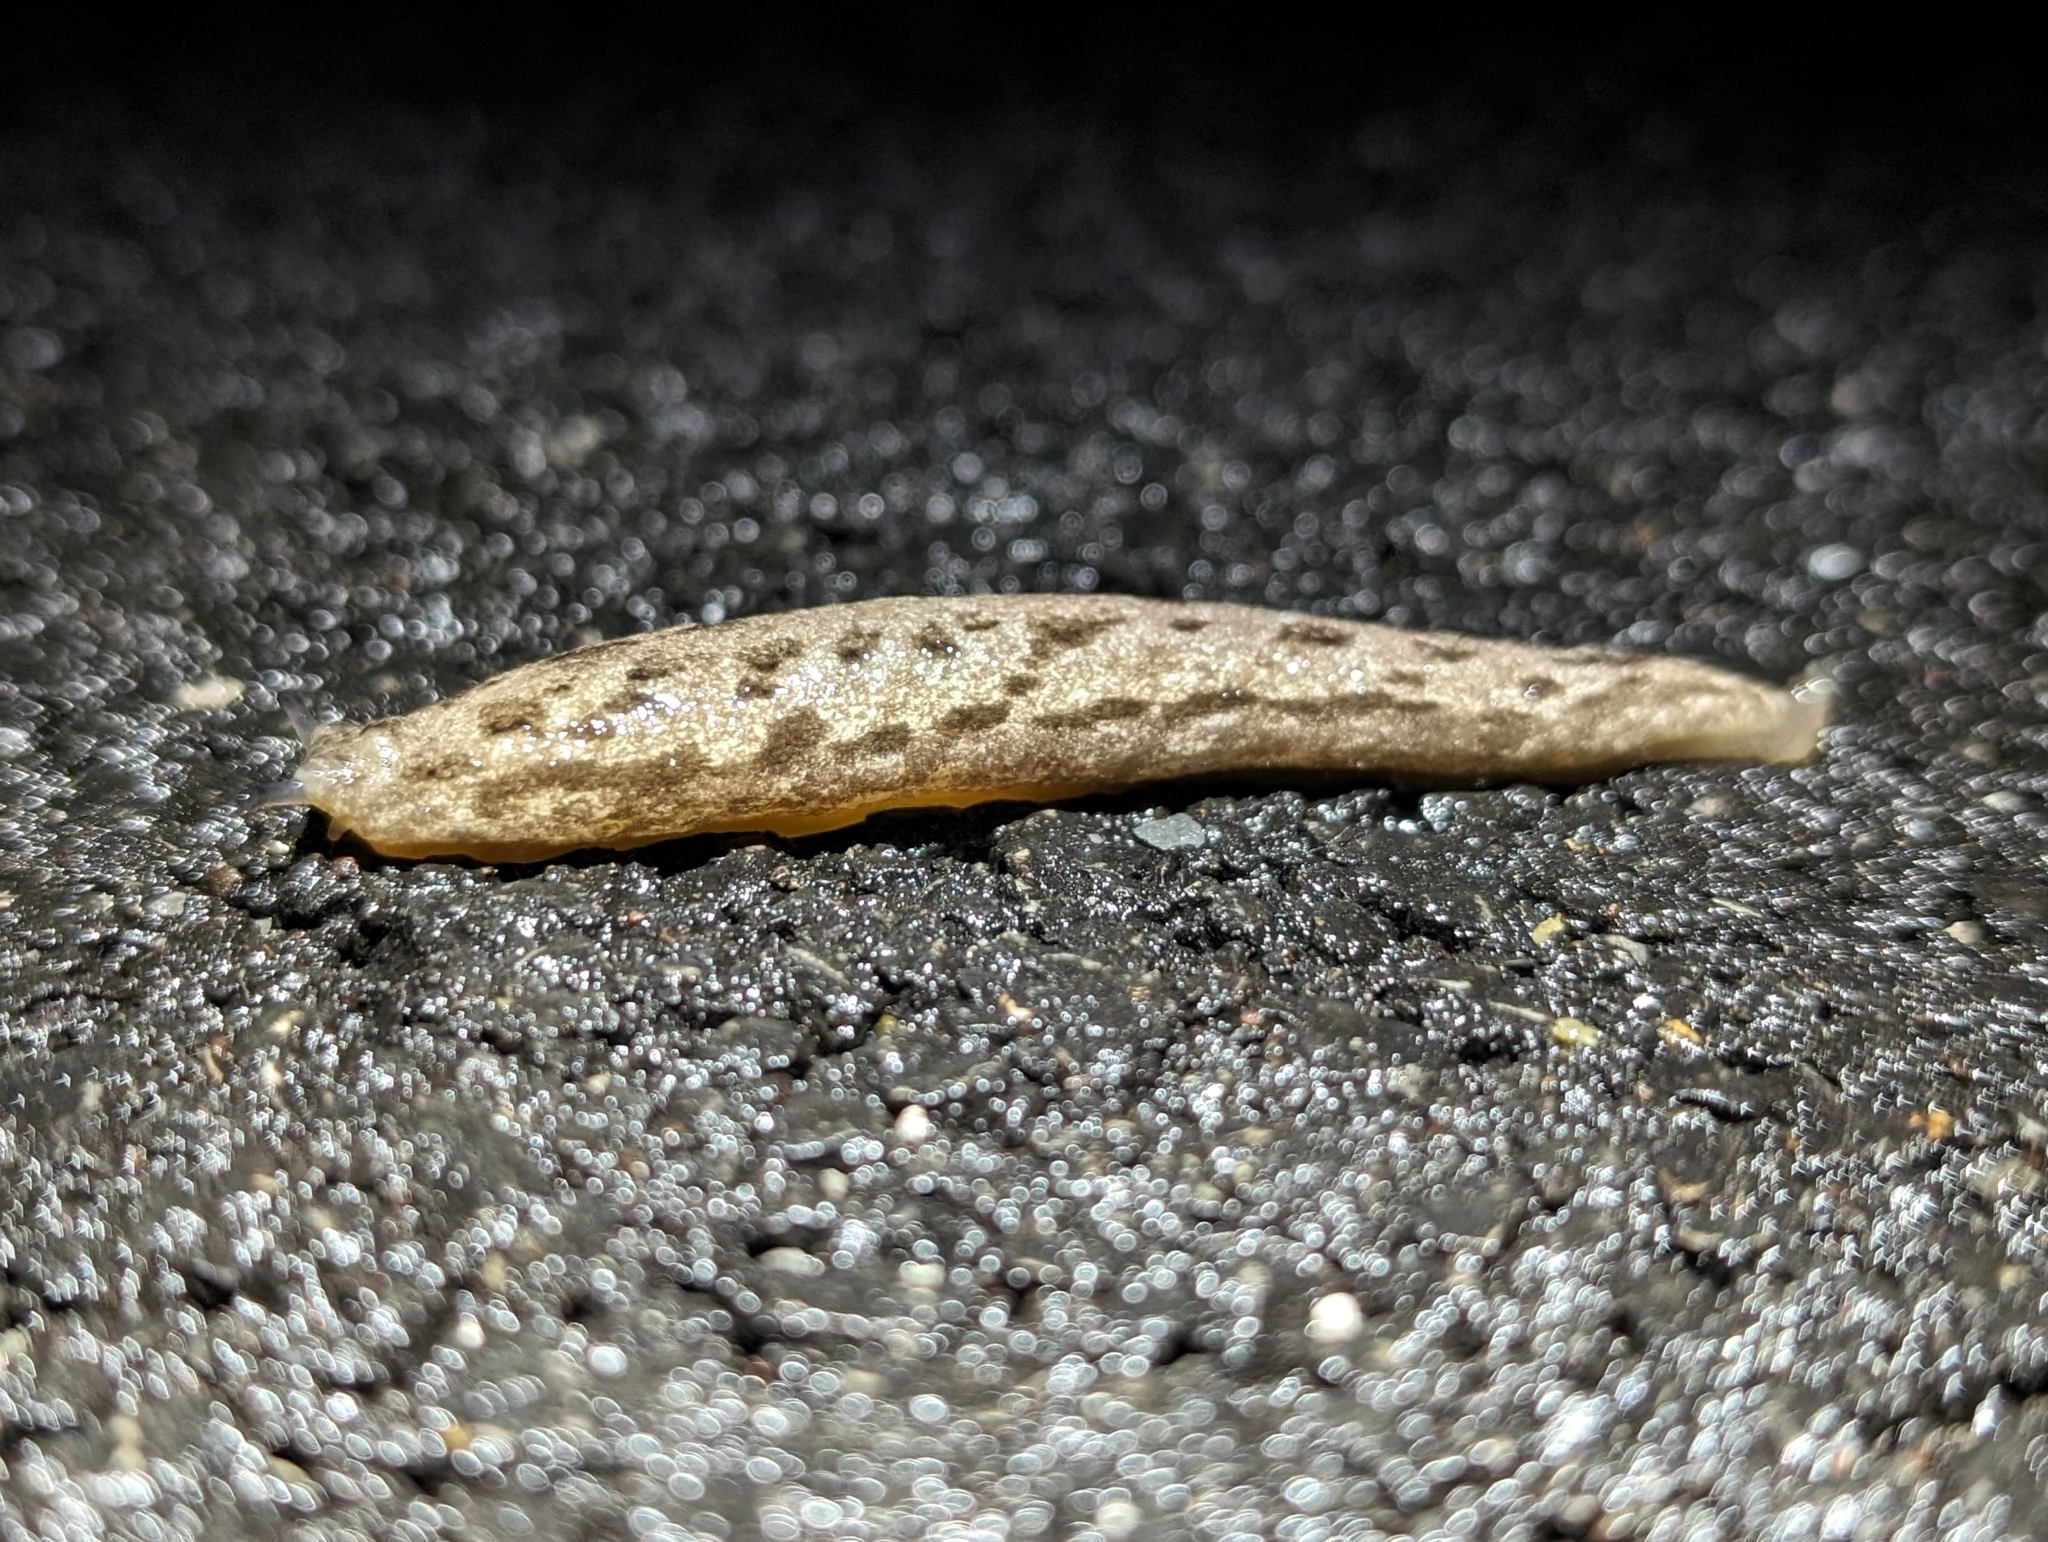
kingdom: Animalia
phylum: Mollusca
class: Gastropoda
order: Stylommatophora
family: Philomycidae
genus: Megapallifera
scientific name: Megapallifera mutabilis
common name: Changeable mantleslug
